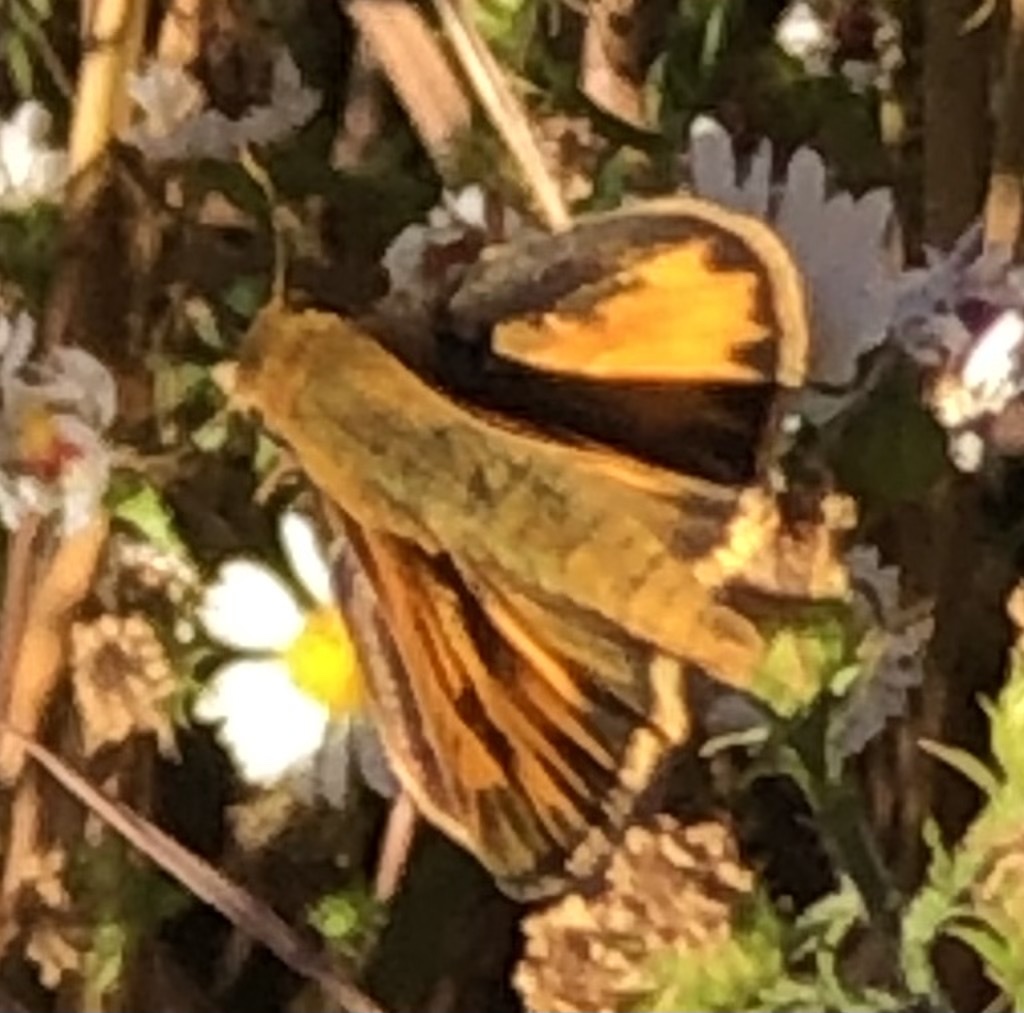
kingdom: Animalia
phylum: Arthropoda
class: Insecta
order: Lepidoptera
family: Hesperiidae
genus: Hylephila
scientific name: Hylephila phyleus
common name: Fiery skipper
